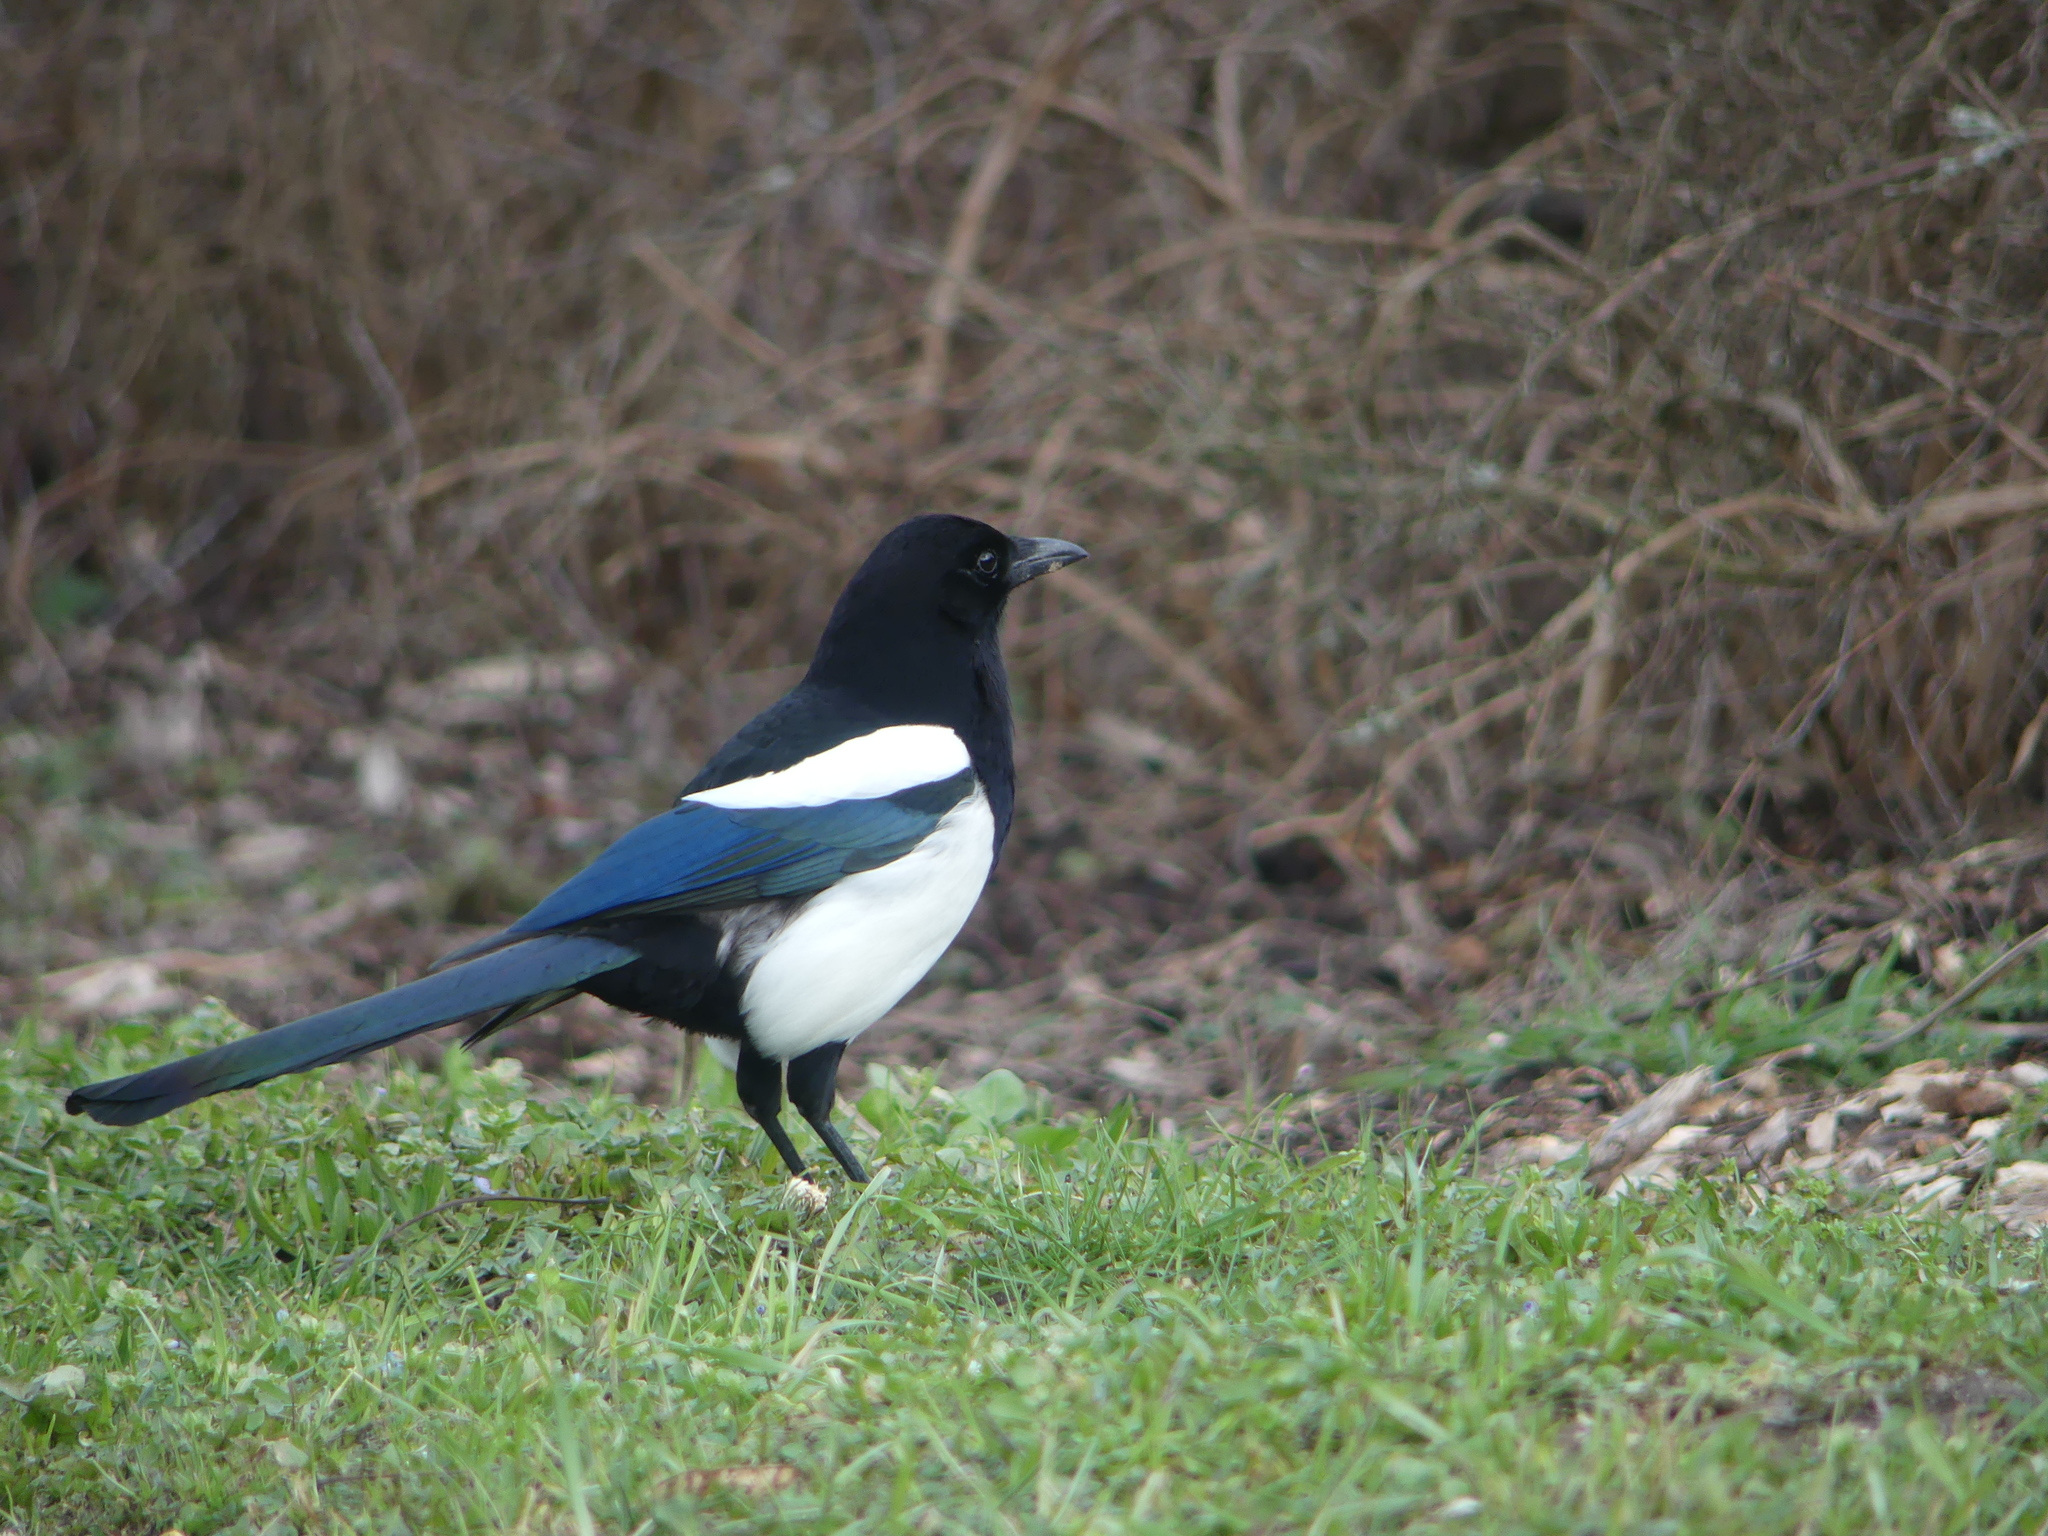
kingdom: Animalia
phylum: Chordata
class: Aves
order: Passeriformes
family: Corvidae
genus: Pica
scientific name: Pica pica
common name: Eurasian magpie
